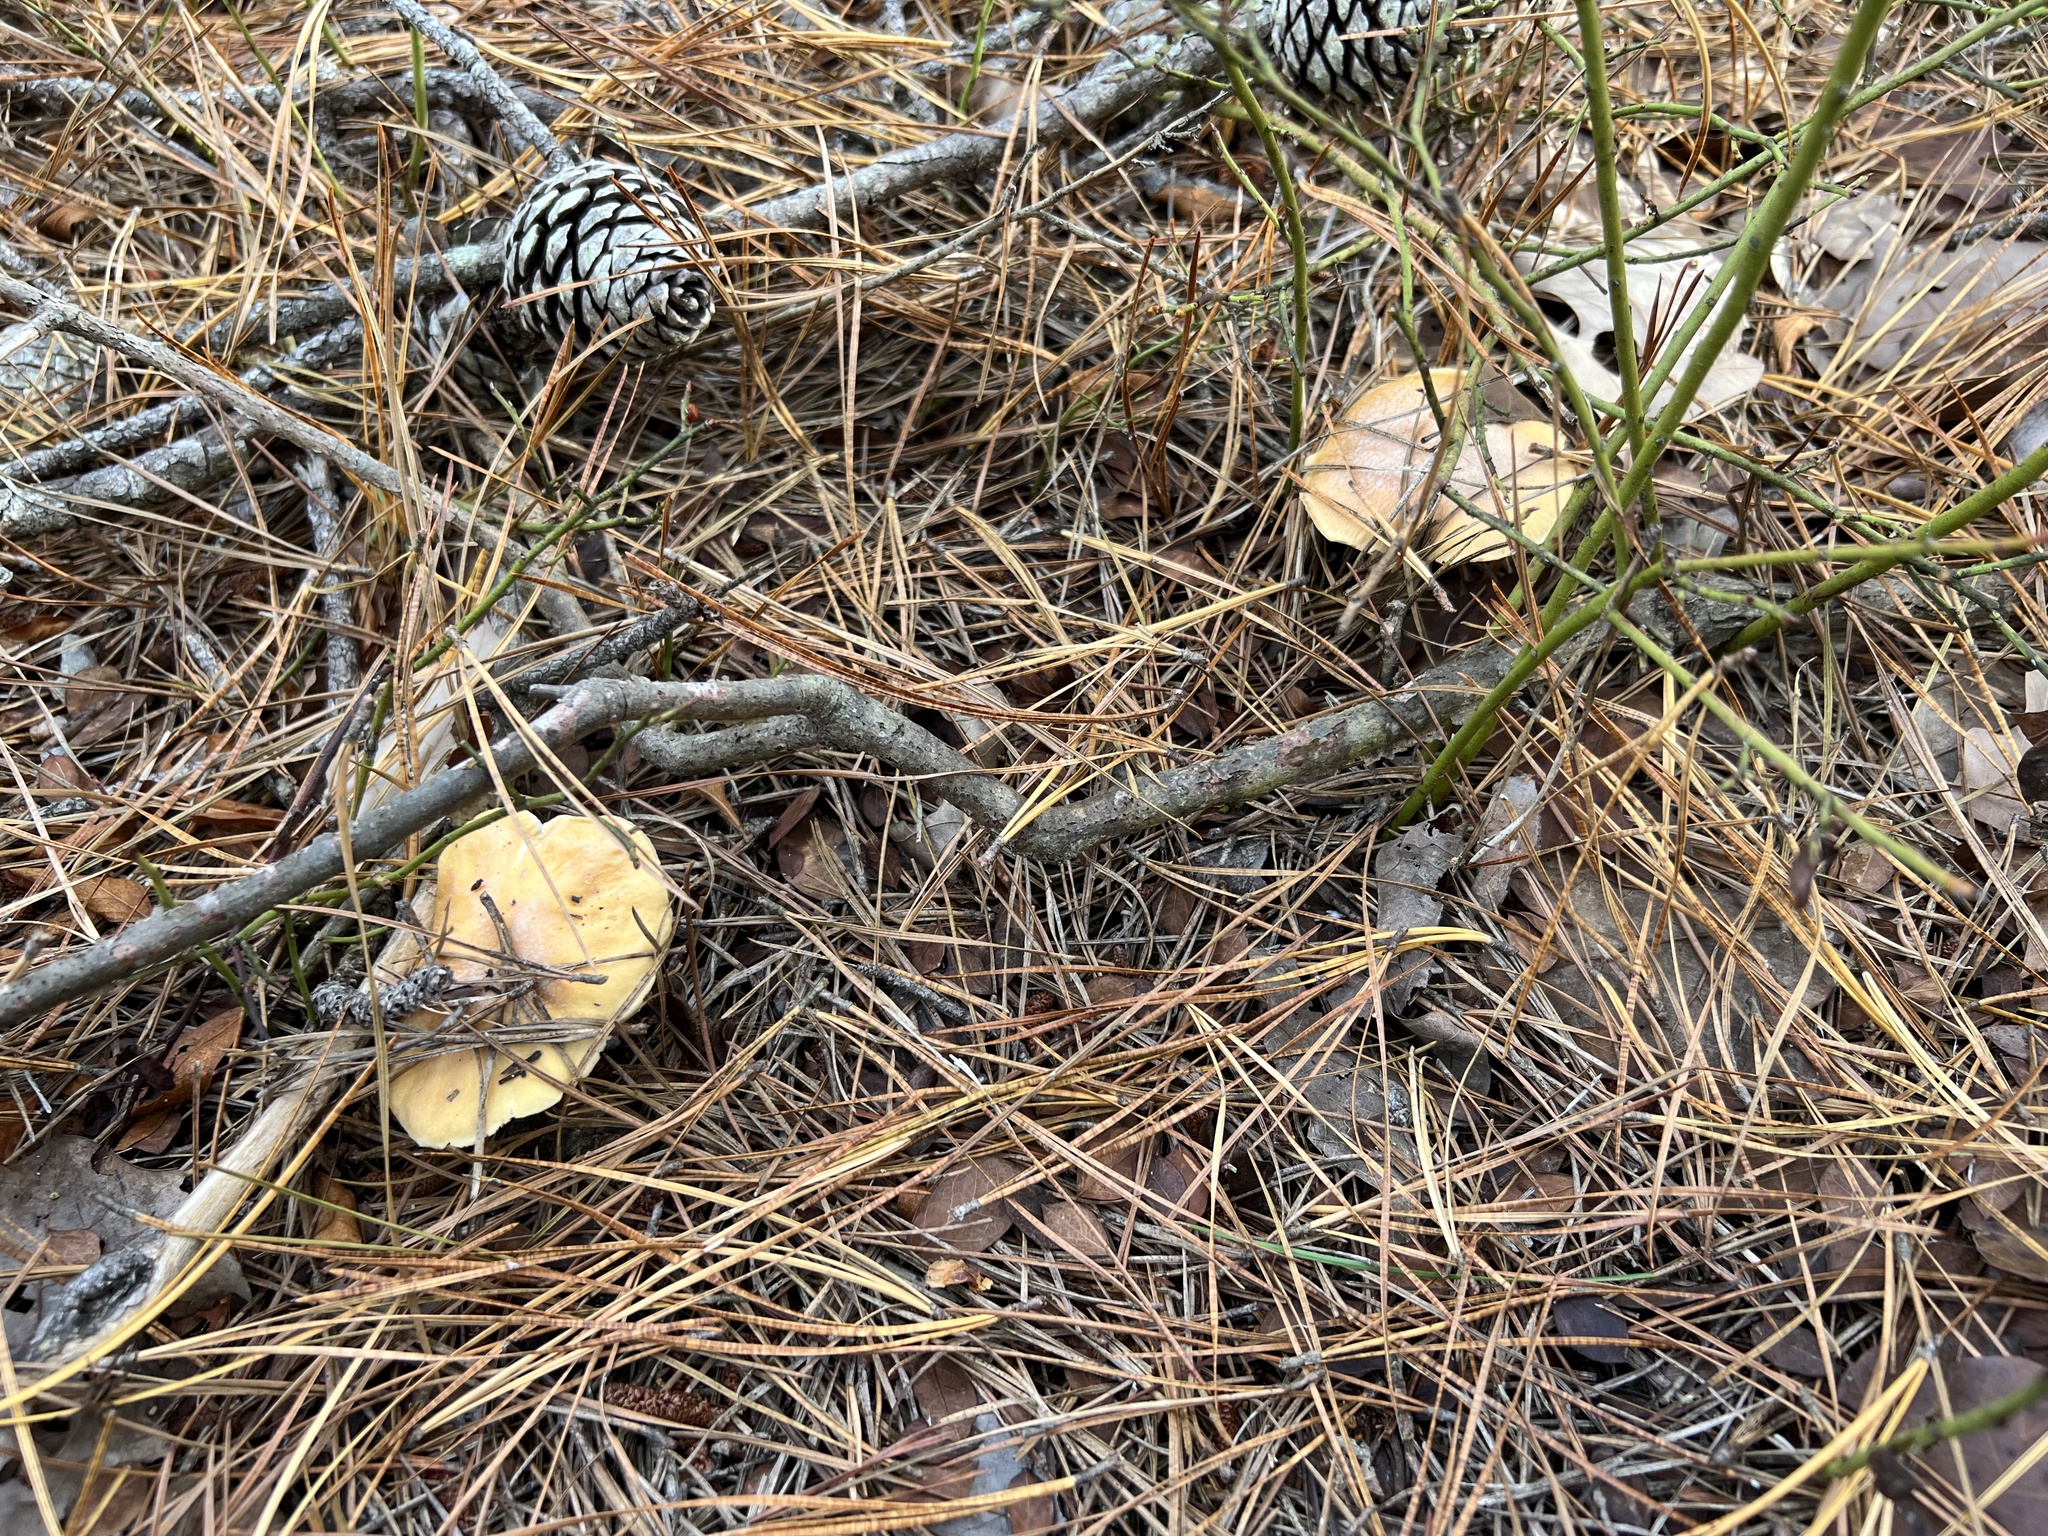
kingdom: Fungi
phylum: Basidiomycota
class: Agaricomycetes
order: Agaricales
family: Cortinariaceae
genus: Cortinarius
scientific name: Cortinarius caperatus
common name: The gypsy
